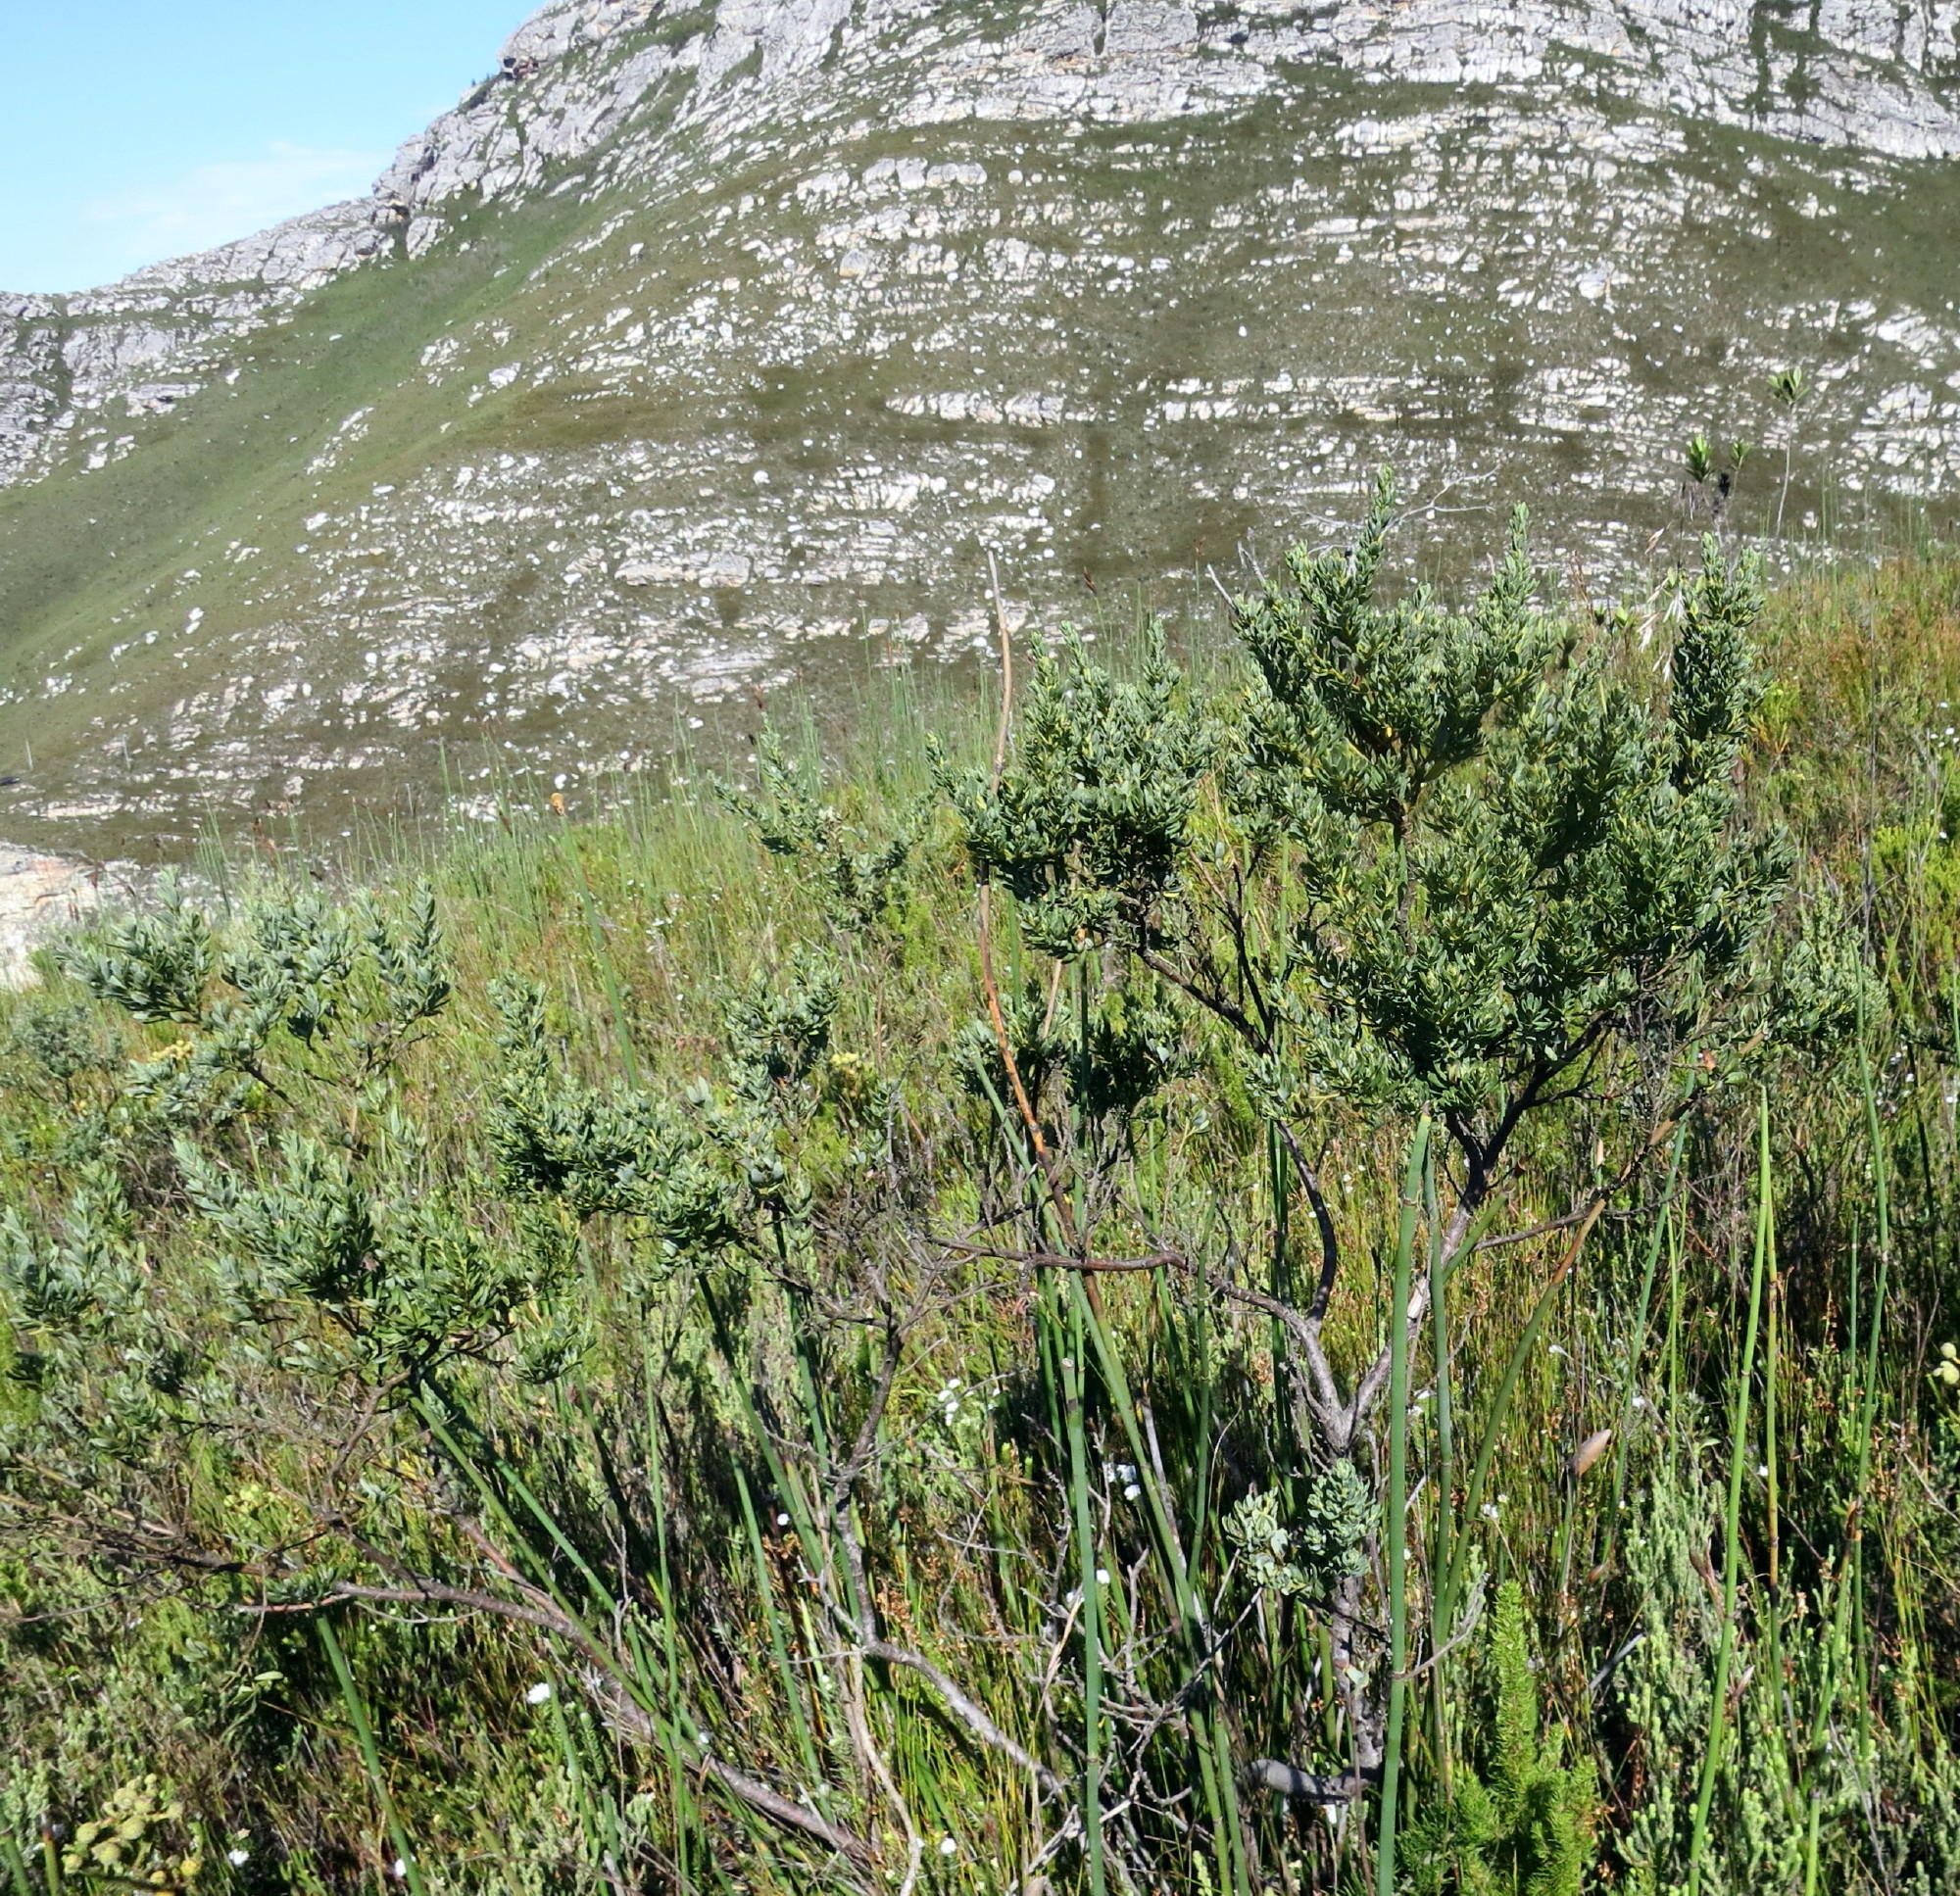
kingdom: Plantae
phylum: Tracheophyta
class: Magnoliopsida
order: Fabales
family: Fabaceae
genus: Cyclopia
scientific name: Cyclopia subternata
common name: Honeybush tea
